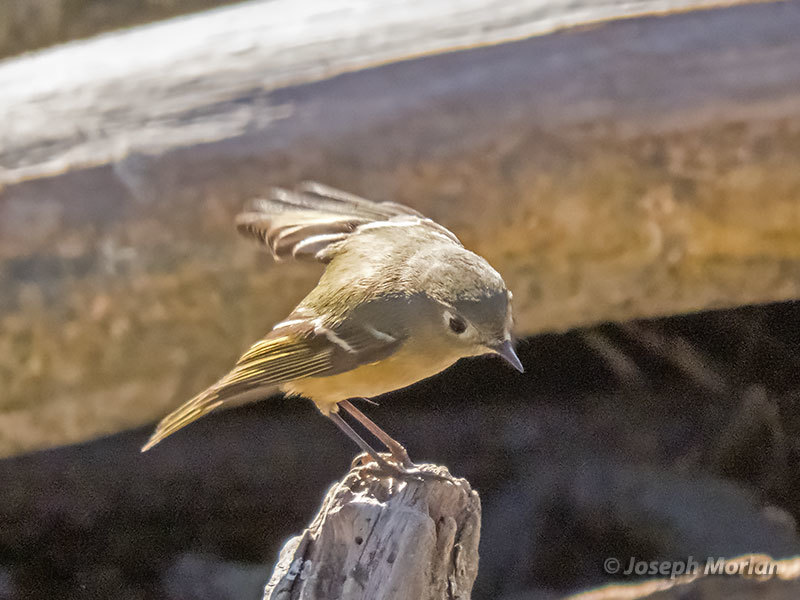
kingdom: Animalia
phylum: Chordata
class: Aves
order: Passeriformes
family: Regulidae
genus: Regulus
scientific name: Regulus calendula
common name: Ruby-crowned kinglet
